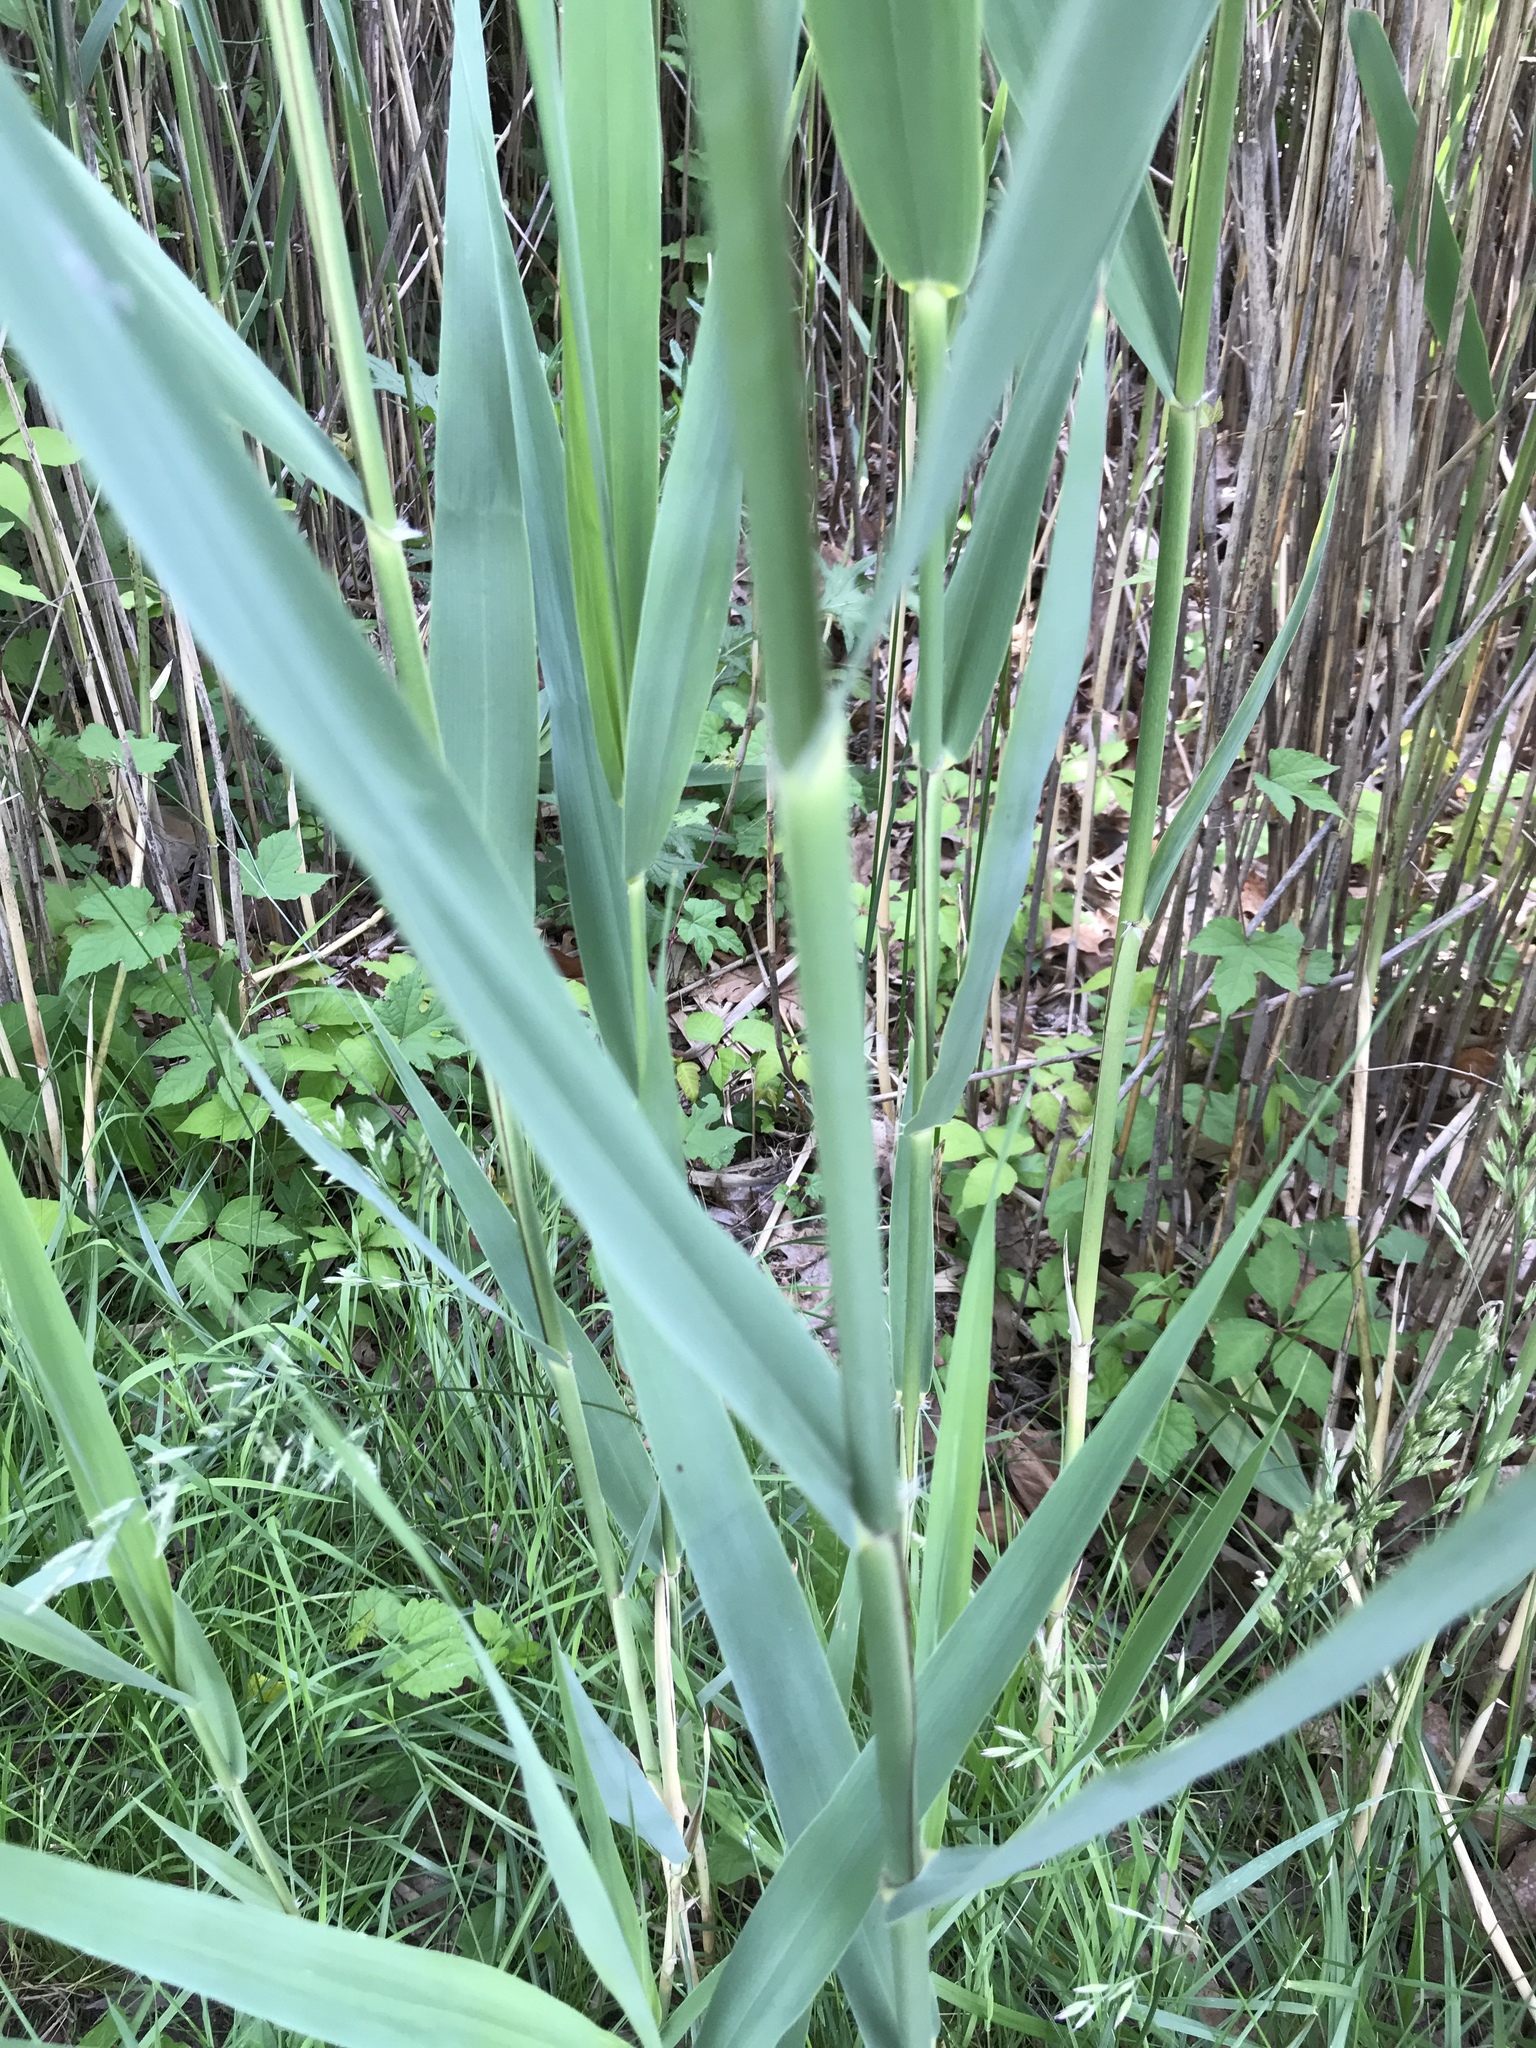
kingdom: Plantae
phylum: Tracheophyta
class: Liliopsida
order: Poales
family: Poaceae
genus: Phragmites
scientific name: Phragmites australis
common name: Common reed
